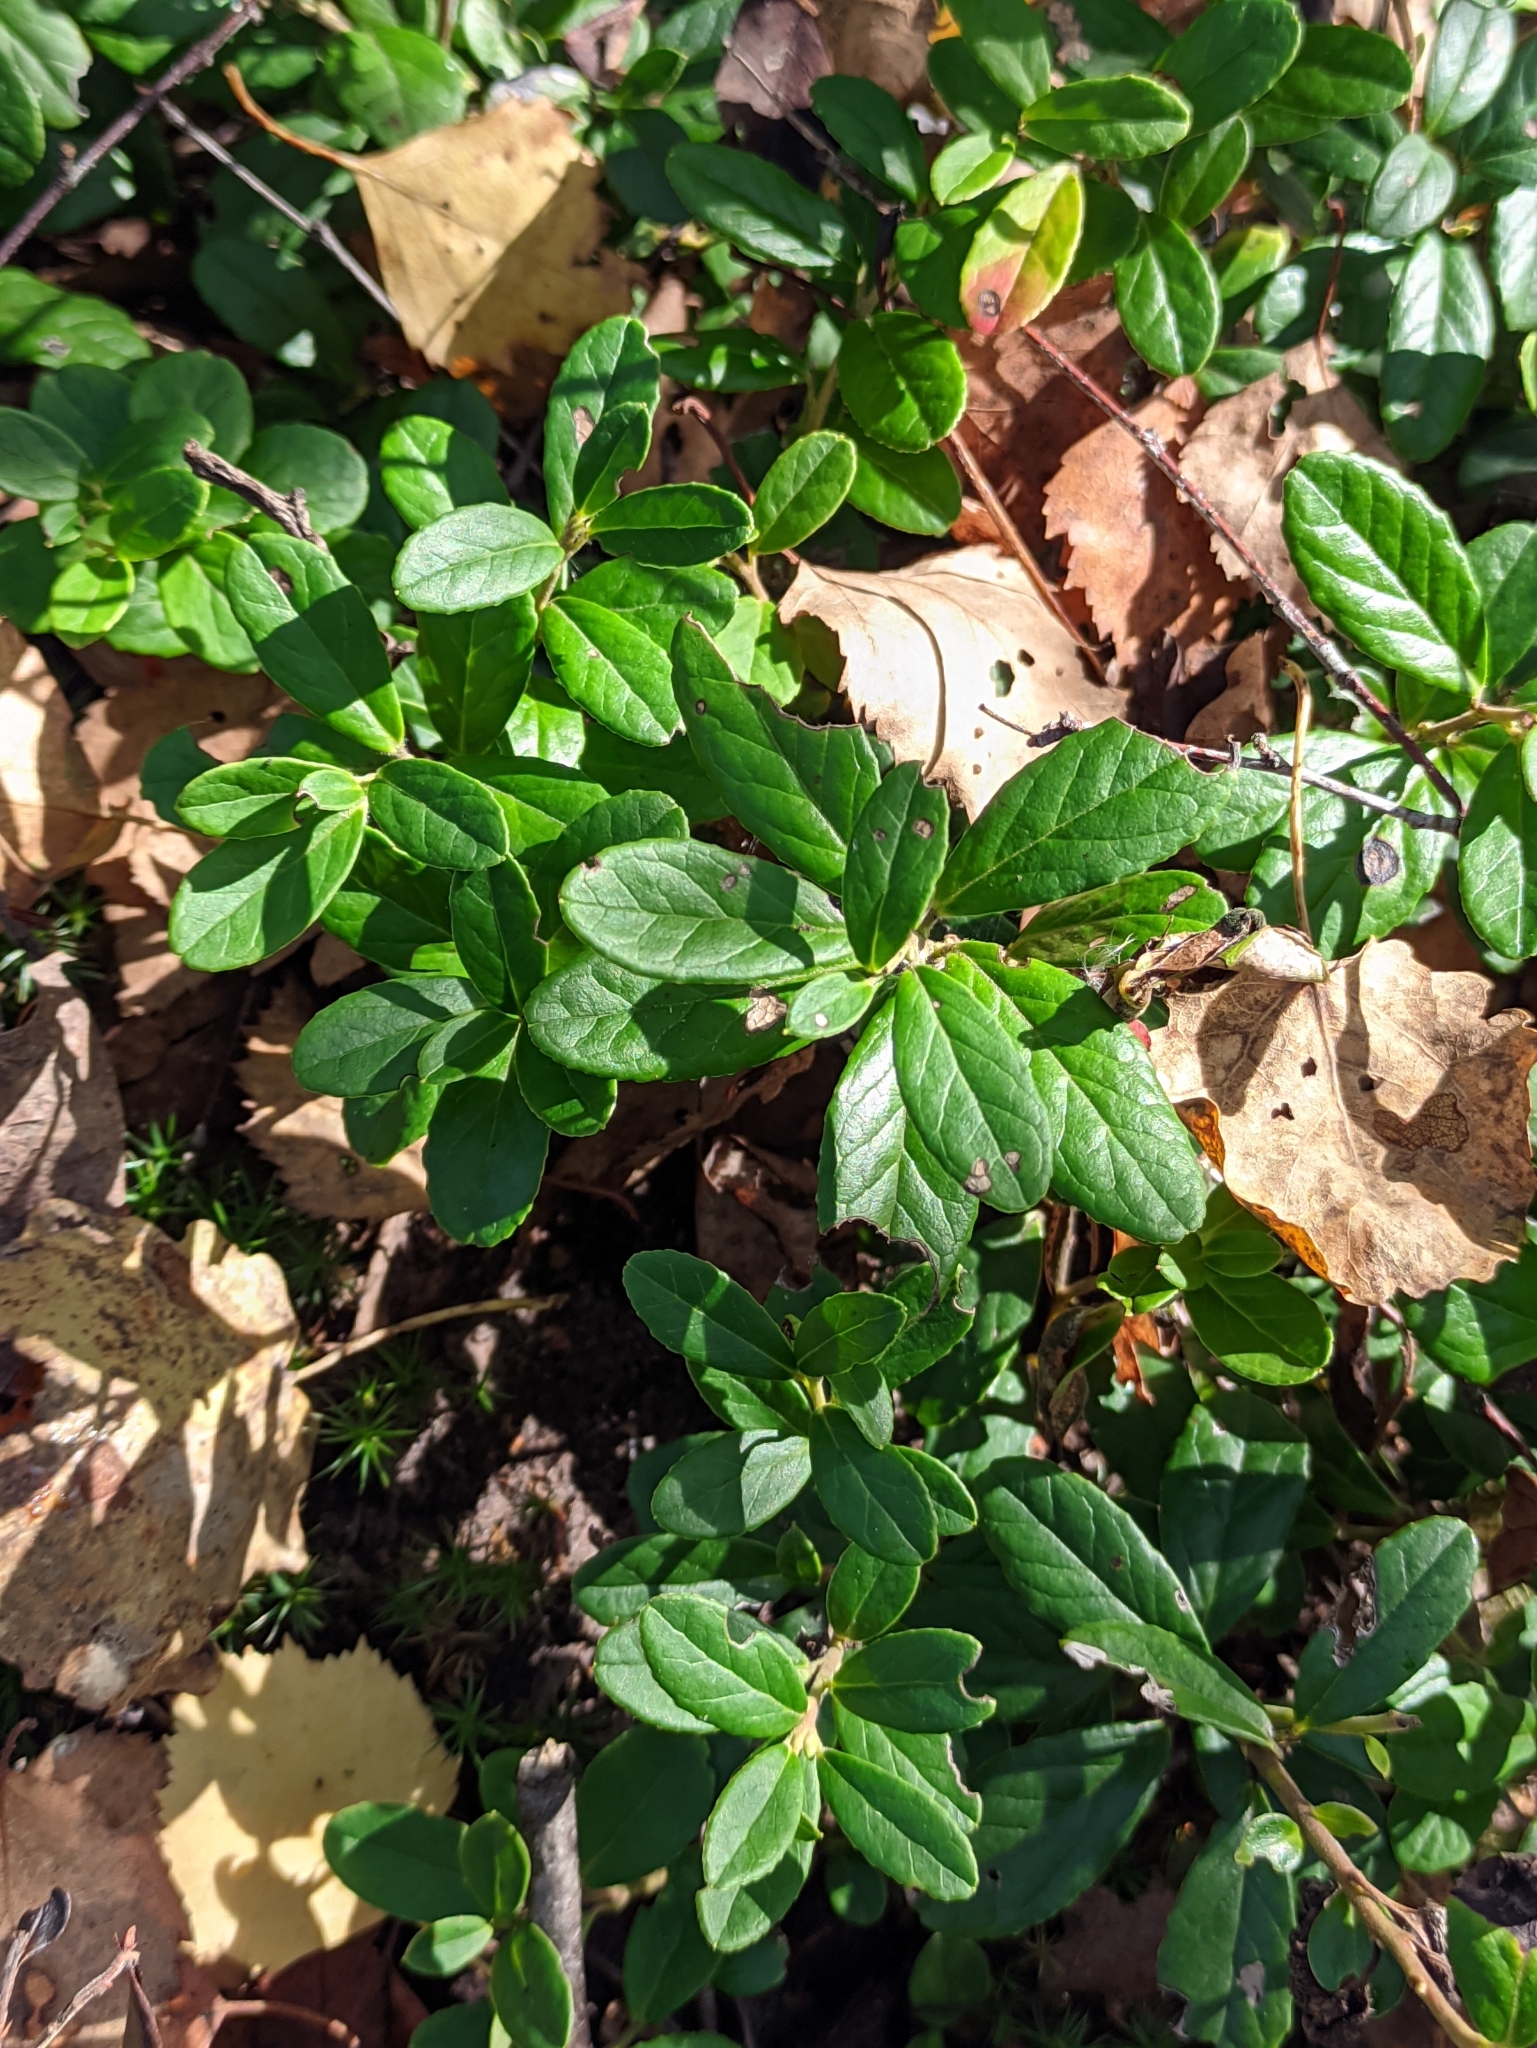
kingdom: Plantae
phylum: Tracheophyta
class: Magnoliopsida
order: Ericales
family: Ericaceae
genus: Vaccinium
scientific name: Vaccinium vitis-idaea
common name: Cowberry
